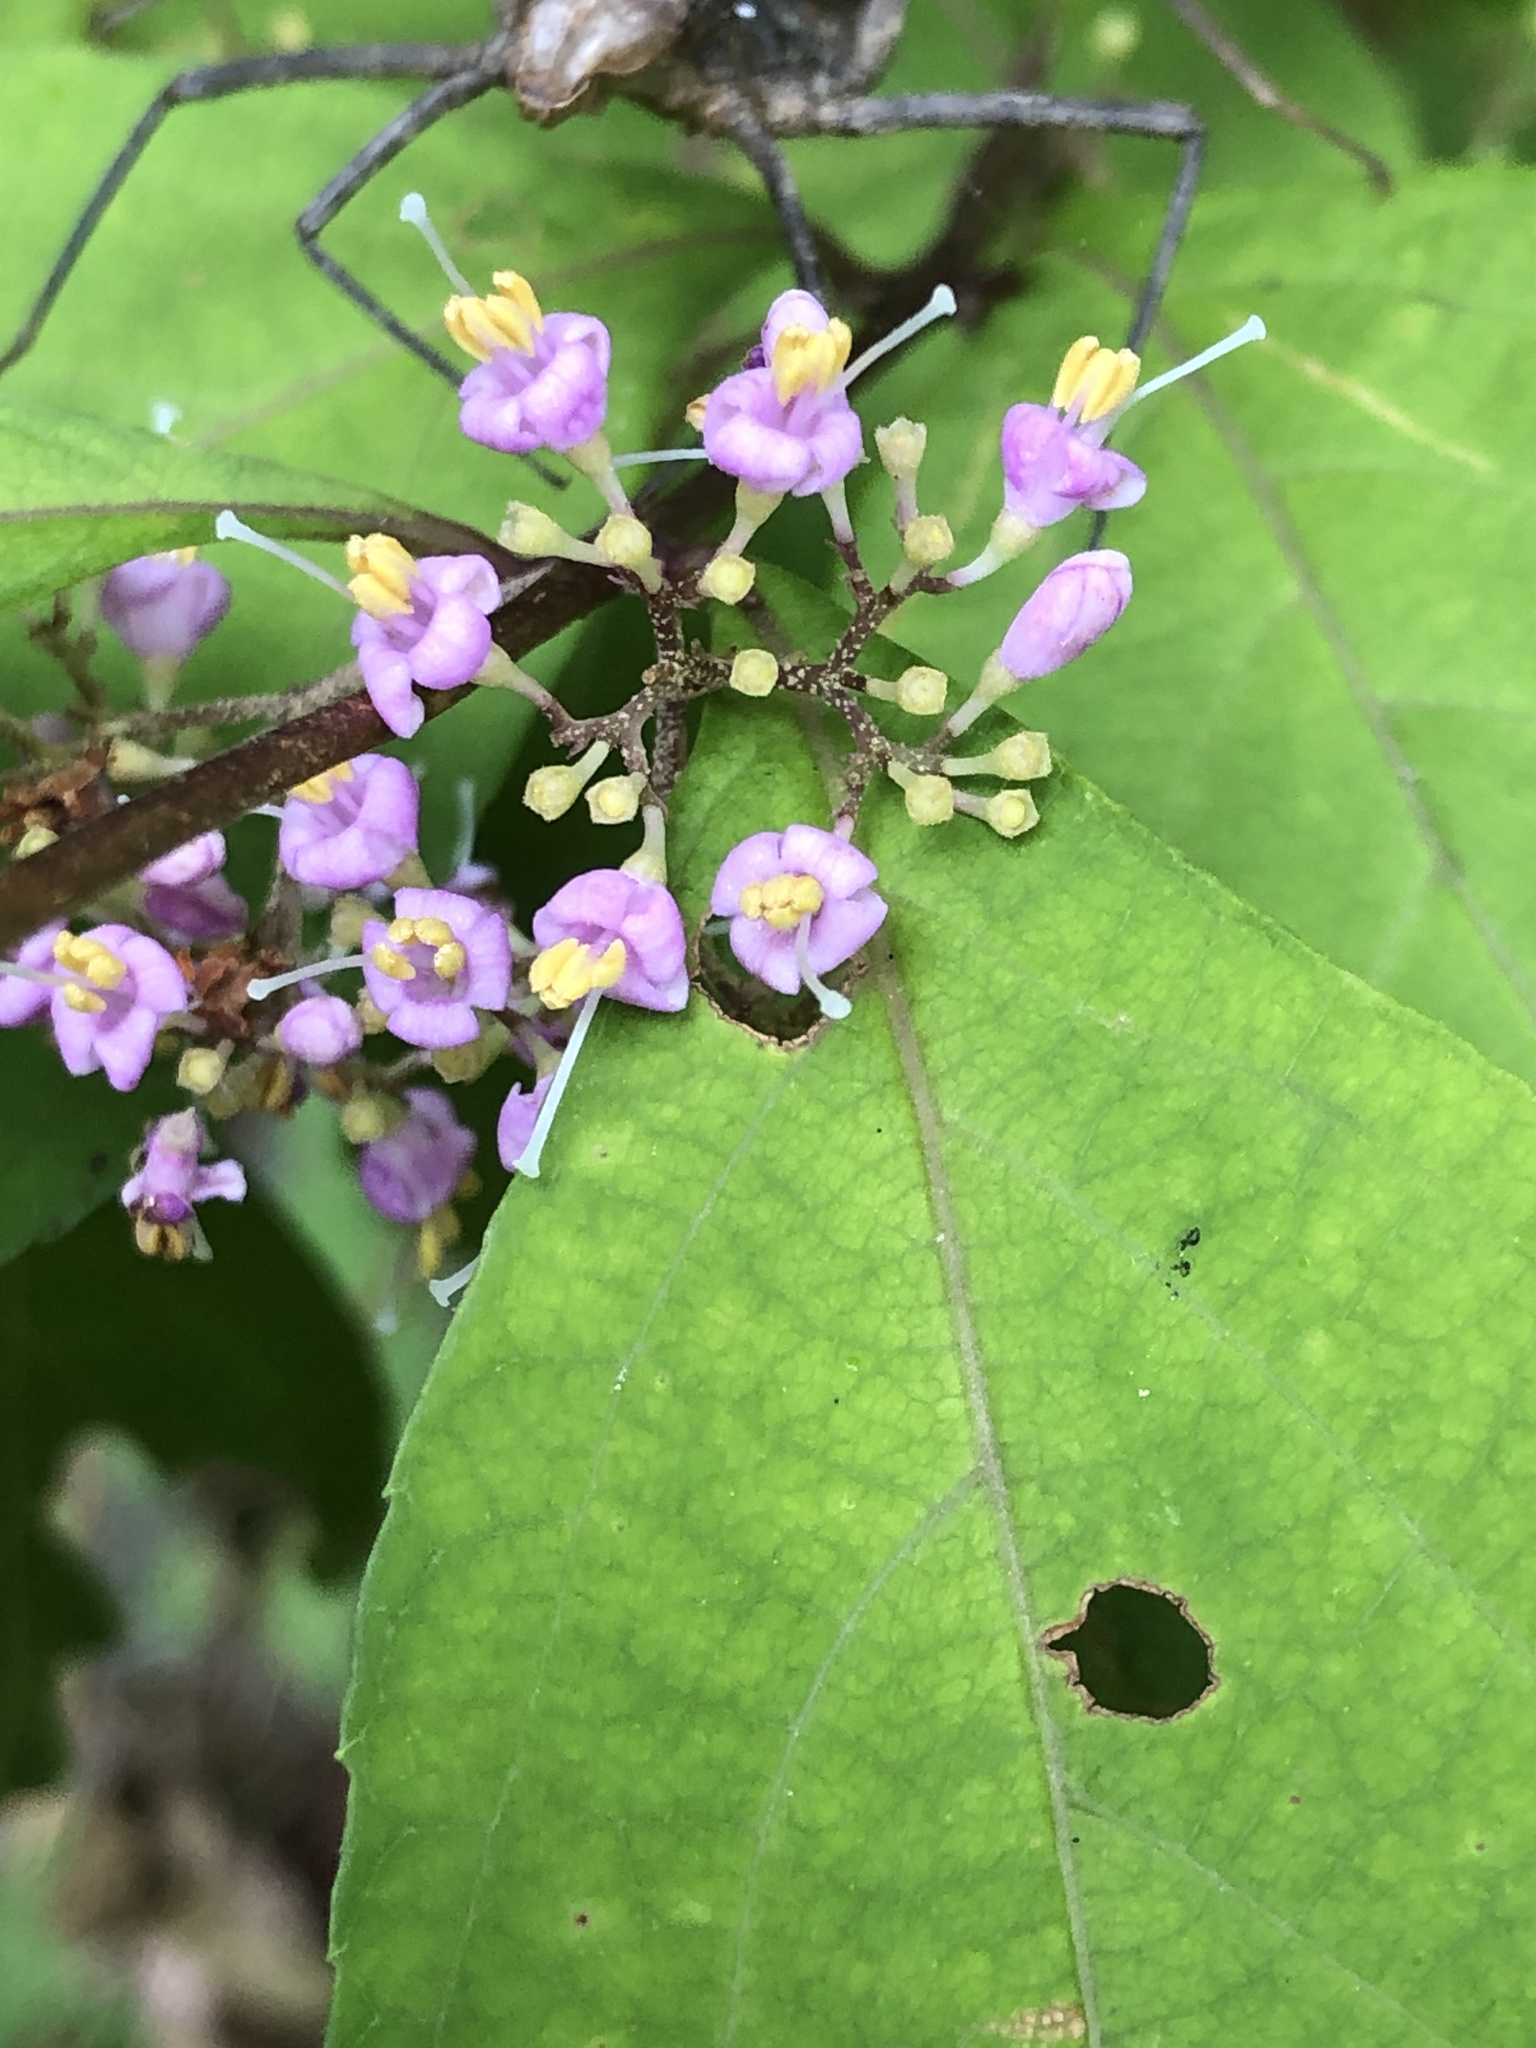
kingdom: Plantae
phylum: Tracheophyta
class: Magnoliopsida
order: Lamiales
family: Lamiaceae
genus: Callicarpa
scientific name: Callicarpa dichotoma
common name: Purple beauty-berry
